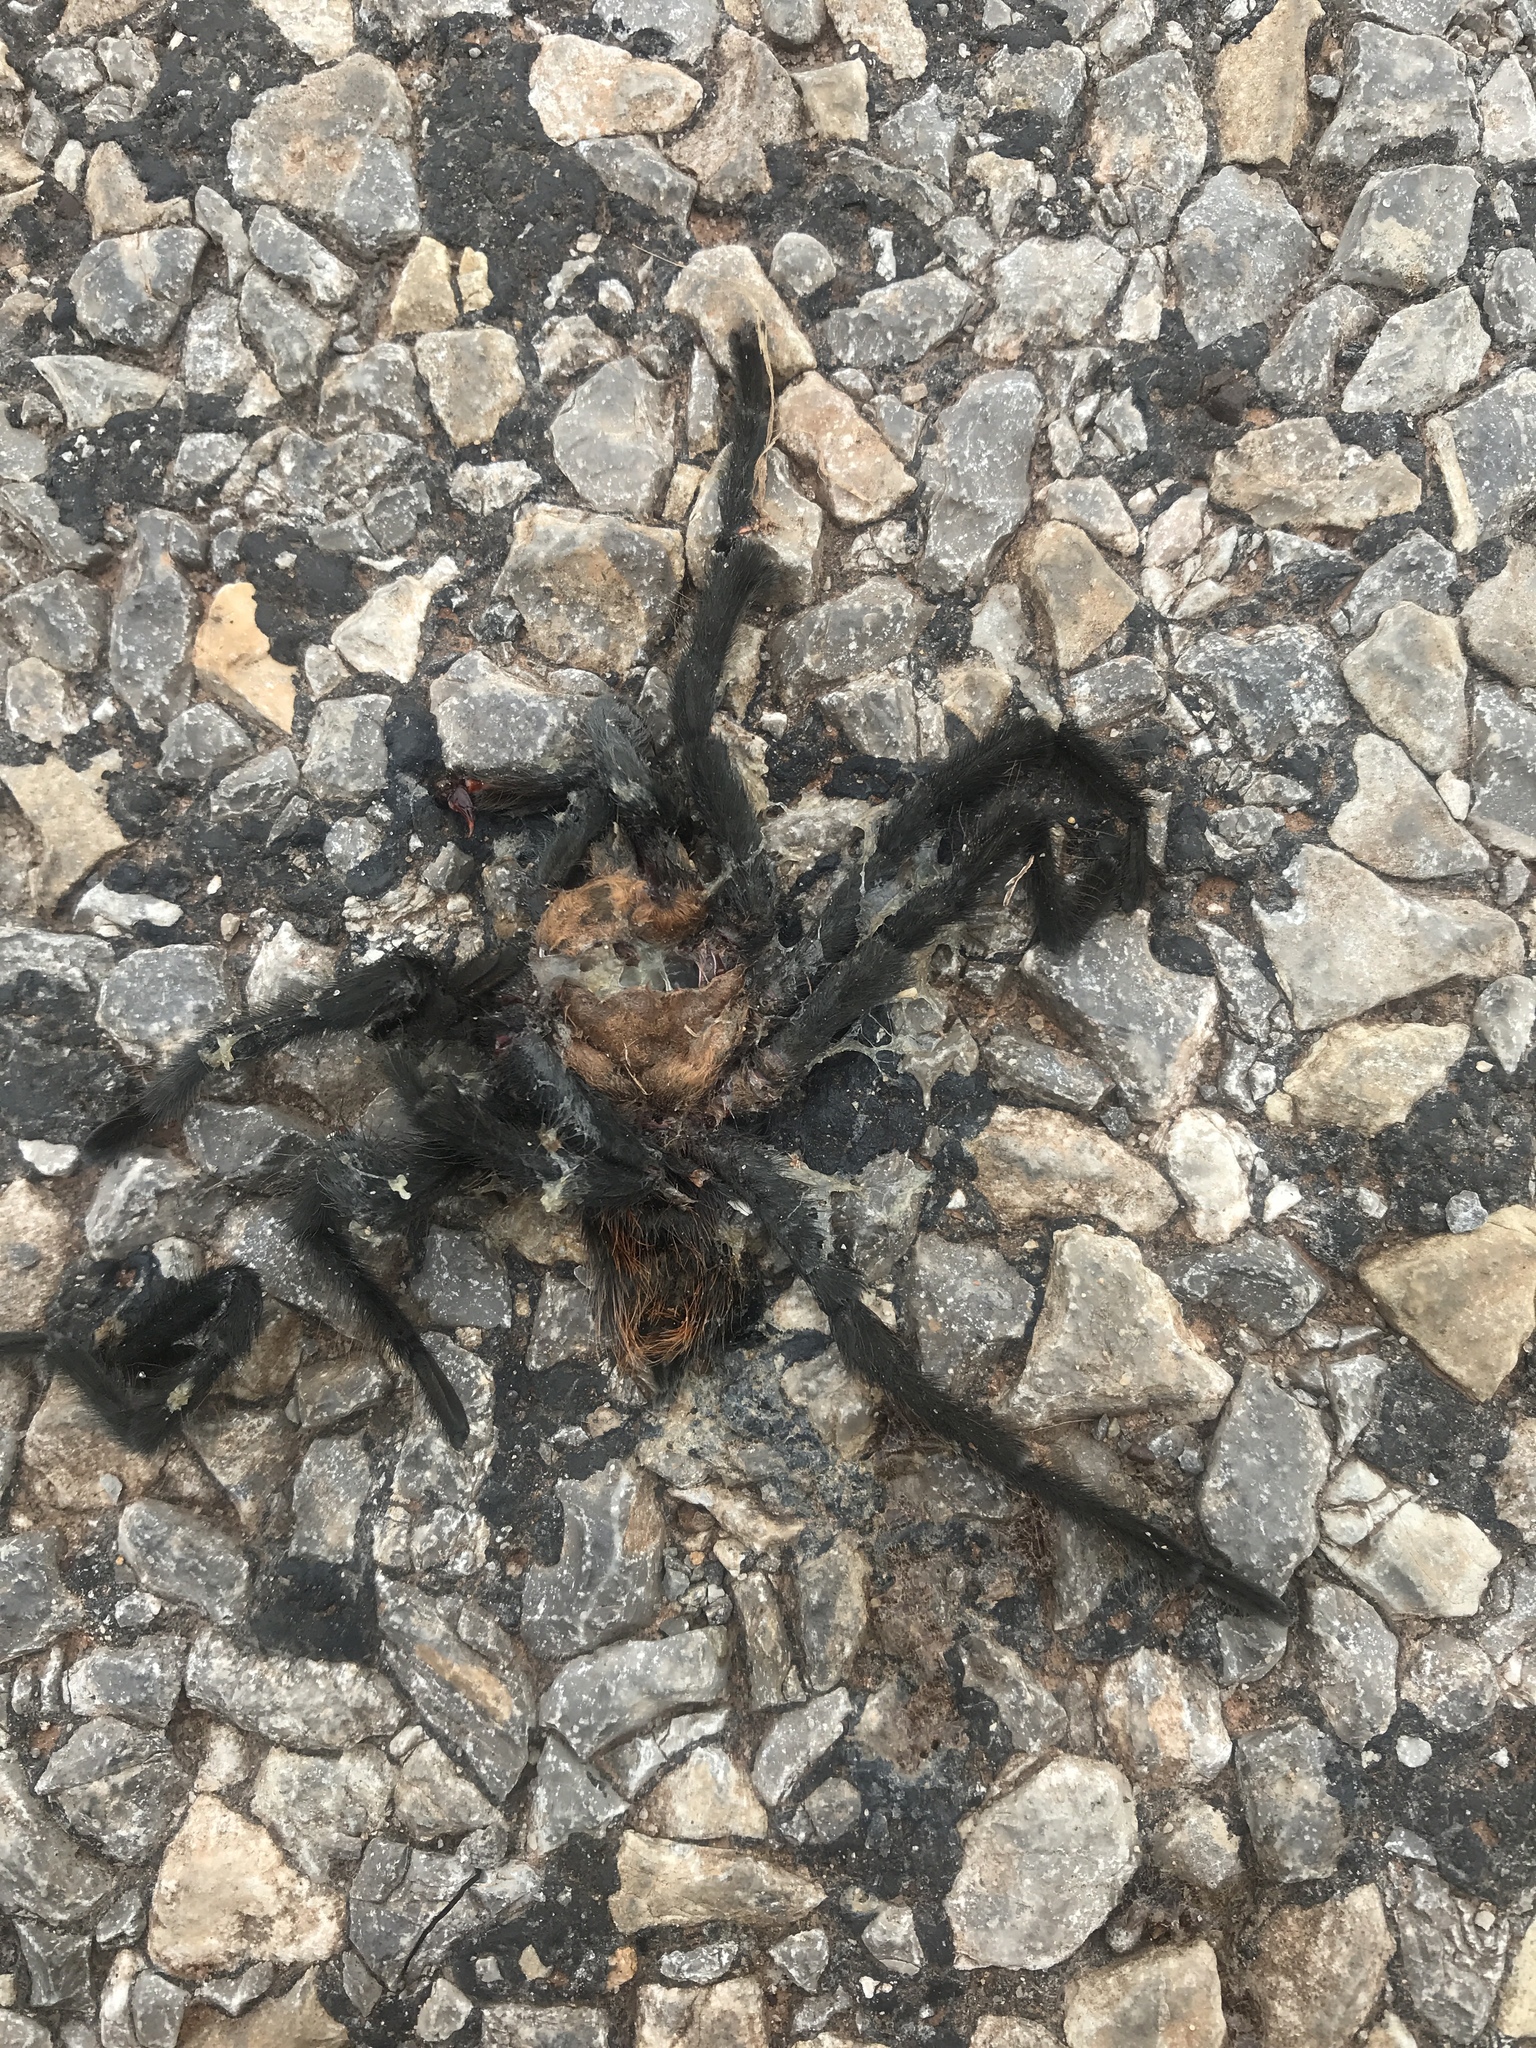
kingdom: Animalia
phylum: Arthropoda
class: Arachnida
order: Araneae
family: Theraphosidae
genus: Aphonopelma
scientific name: Aphonopelma hentzi
